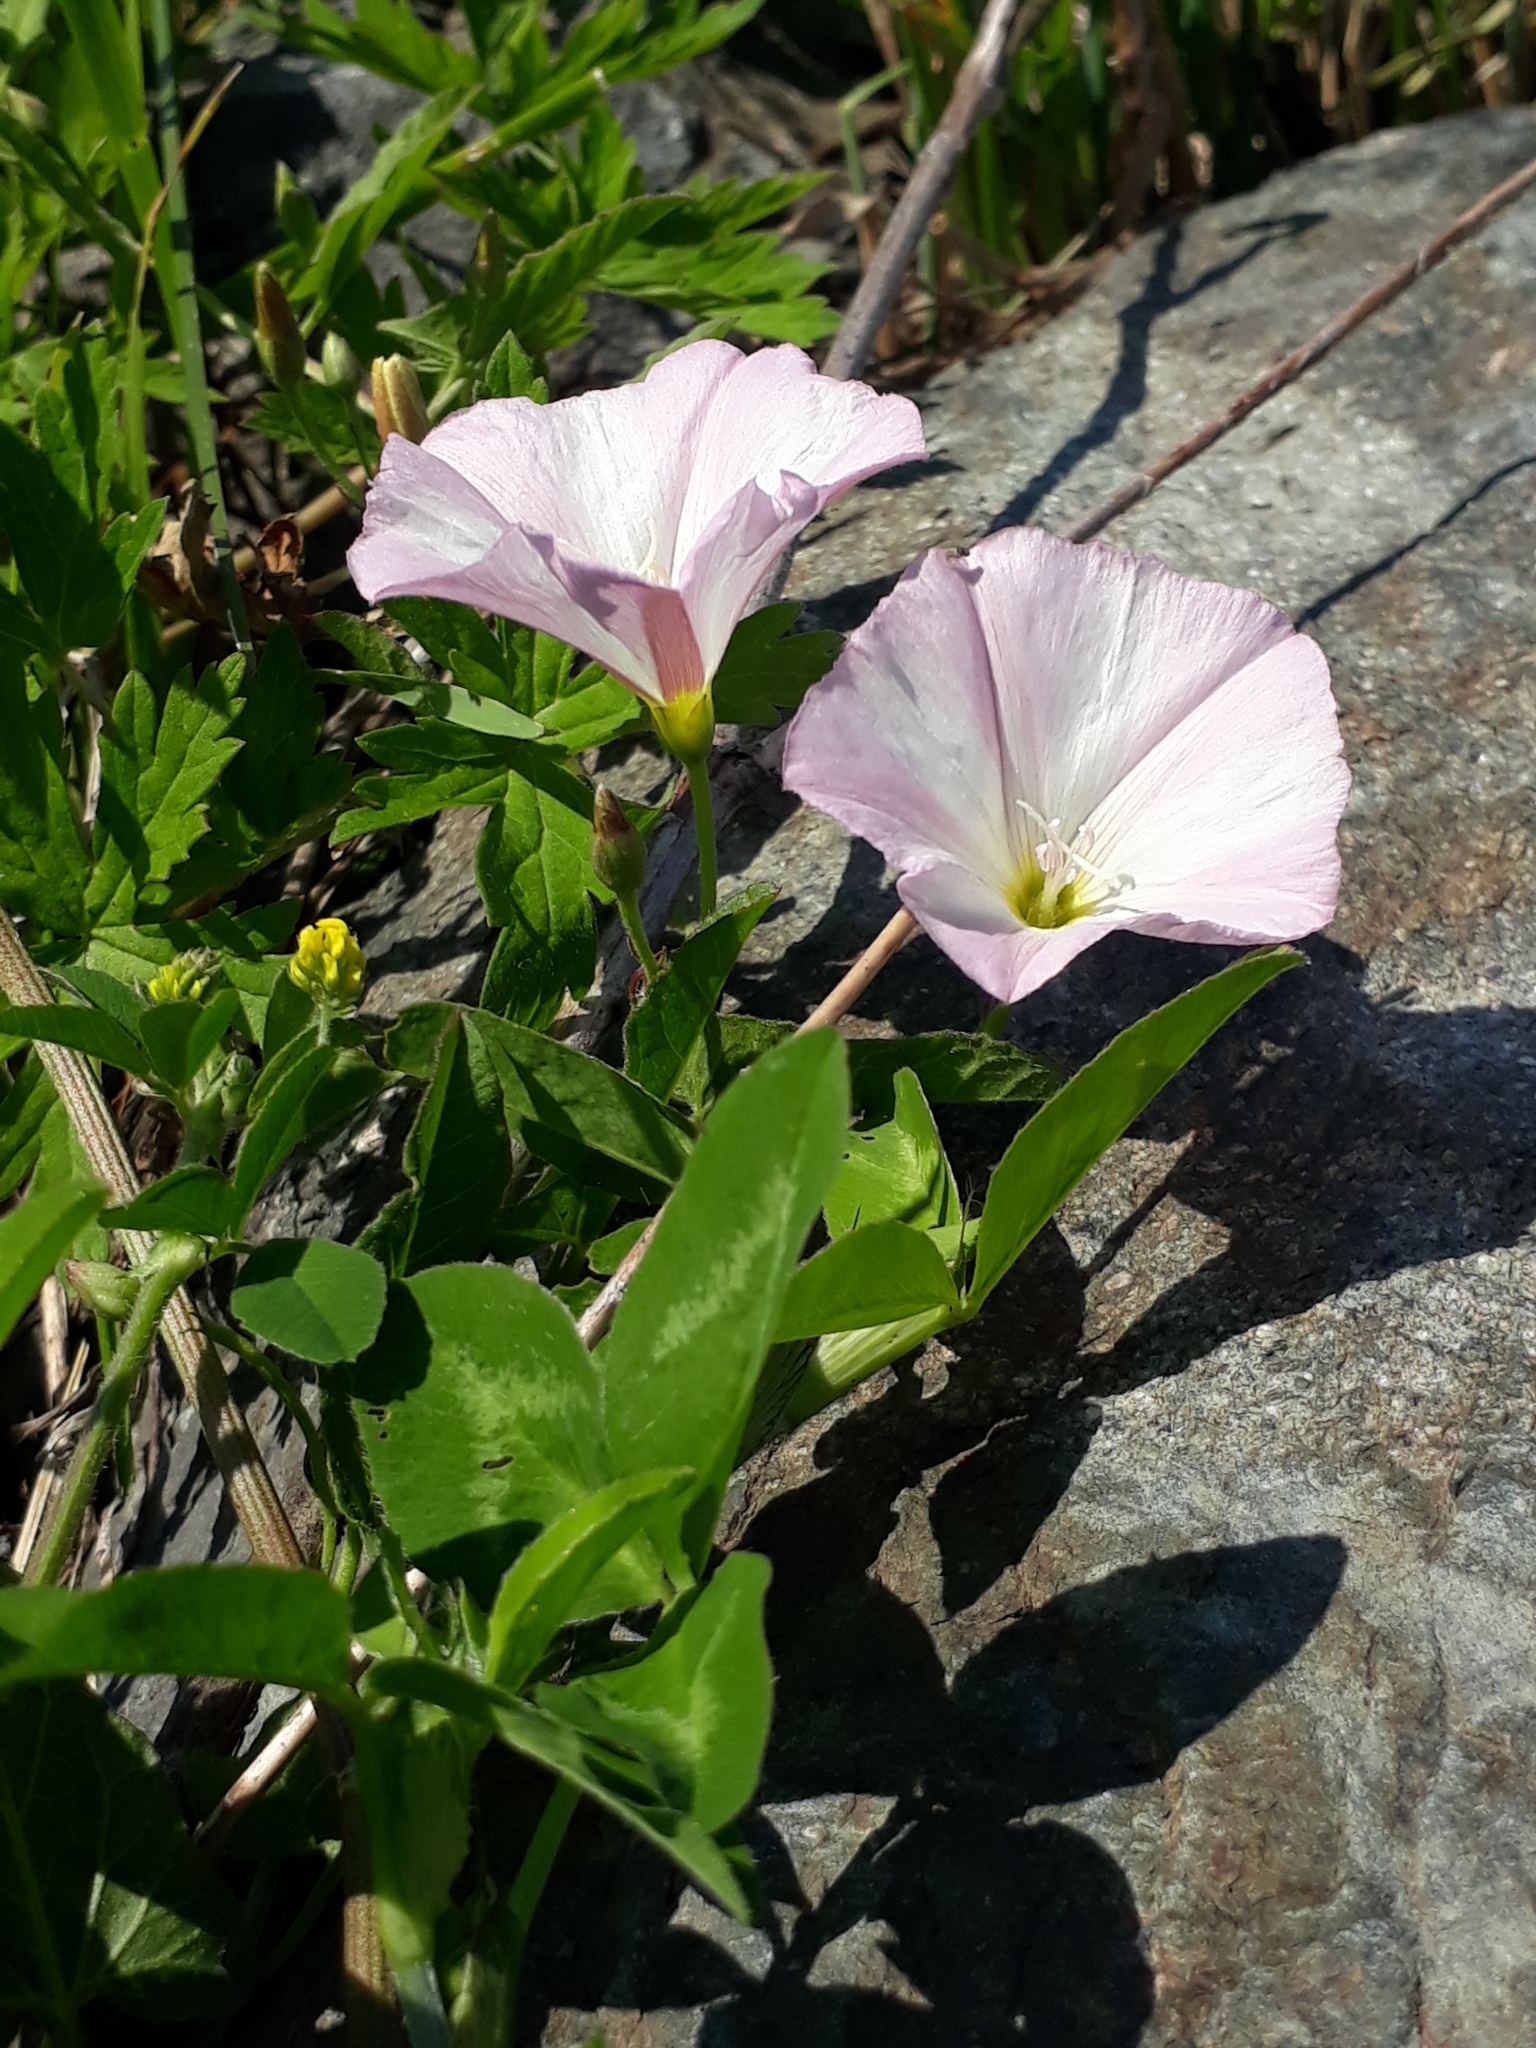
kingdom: Plantae
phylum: Tracheophyta
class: Magnoliopsida
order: Solanales
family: Convolvulaceae
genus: Convolvulus
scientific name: Convolvulus arvensis
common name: Field bindweed
